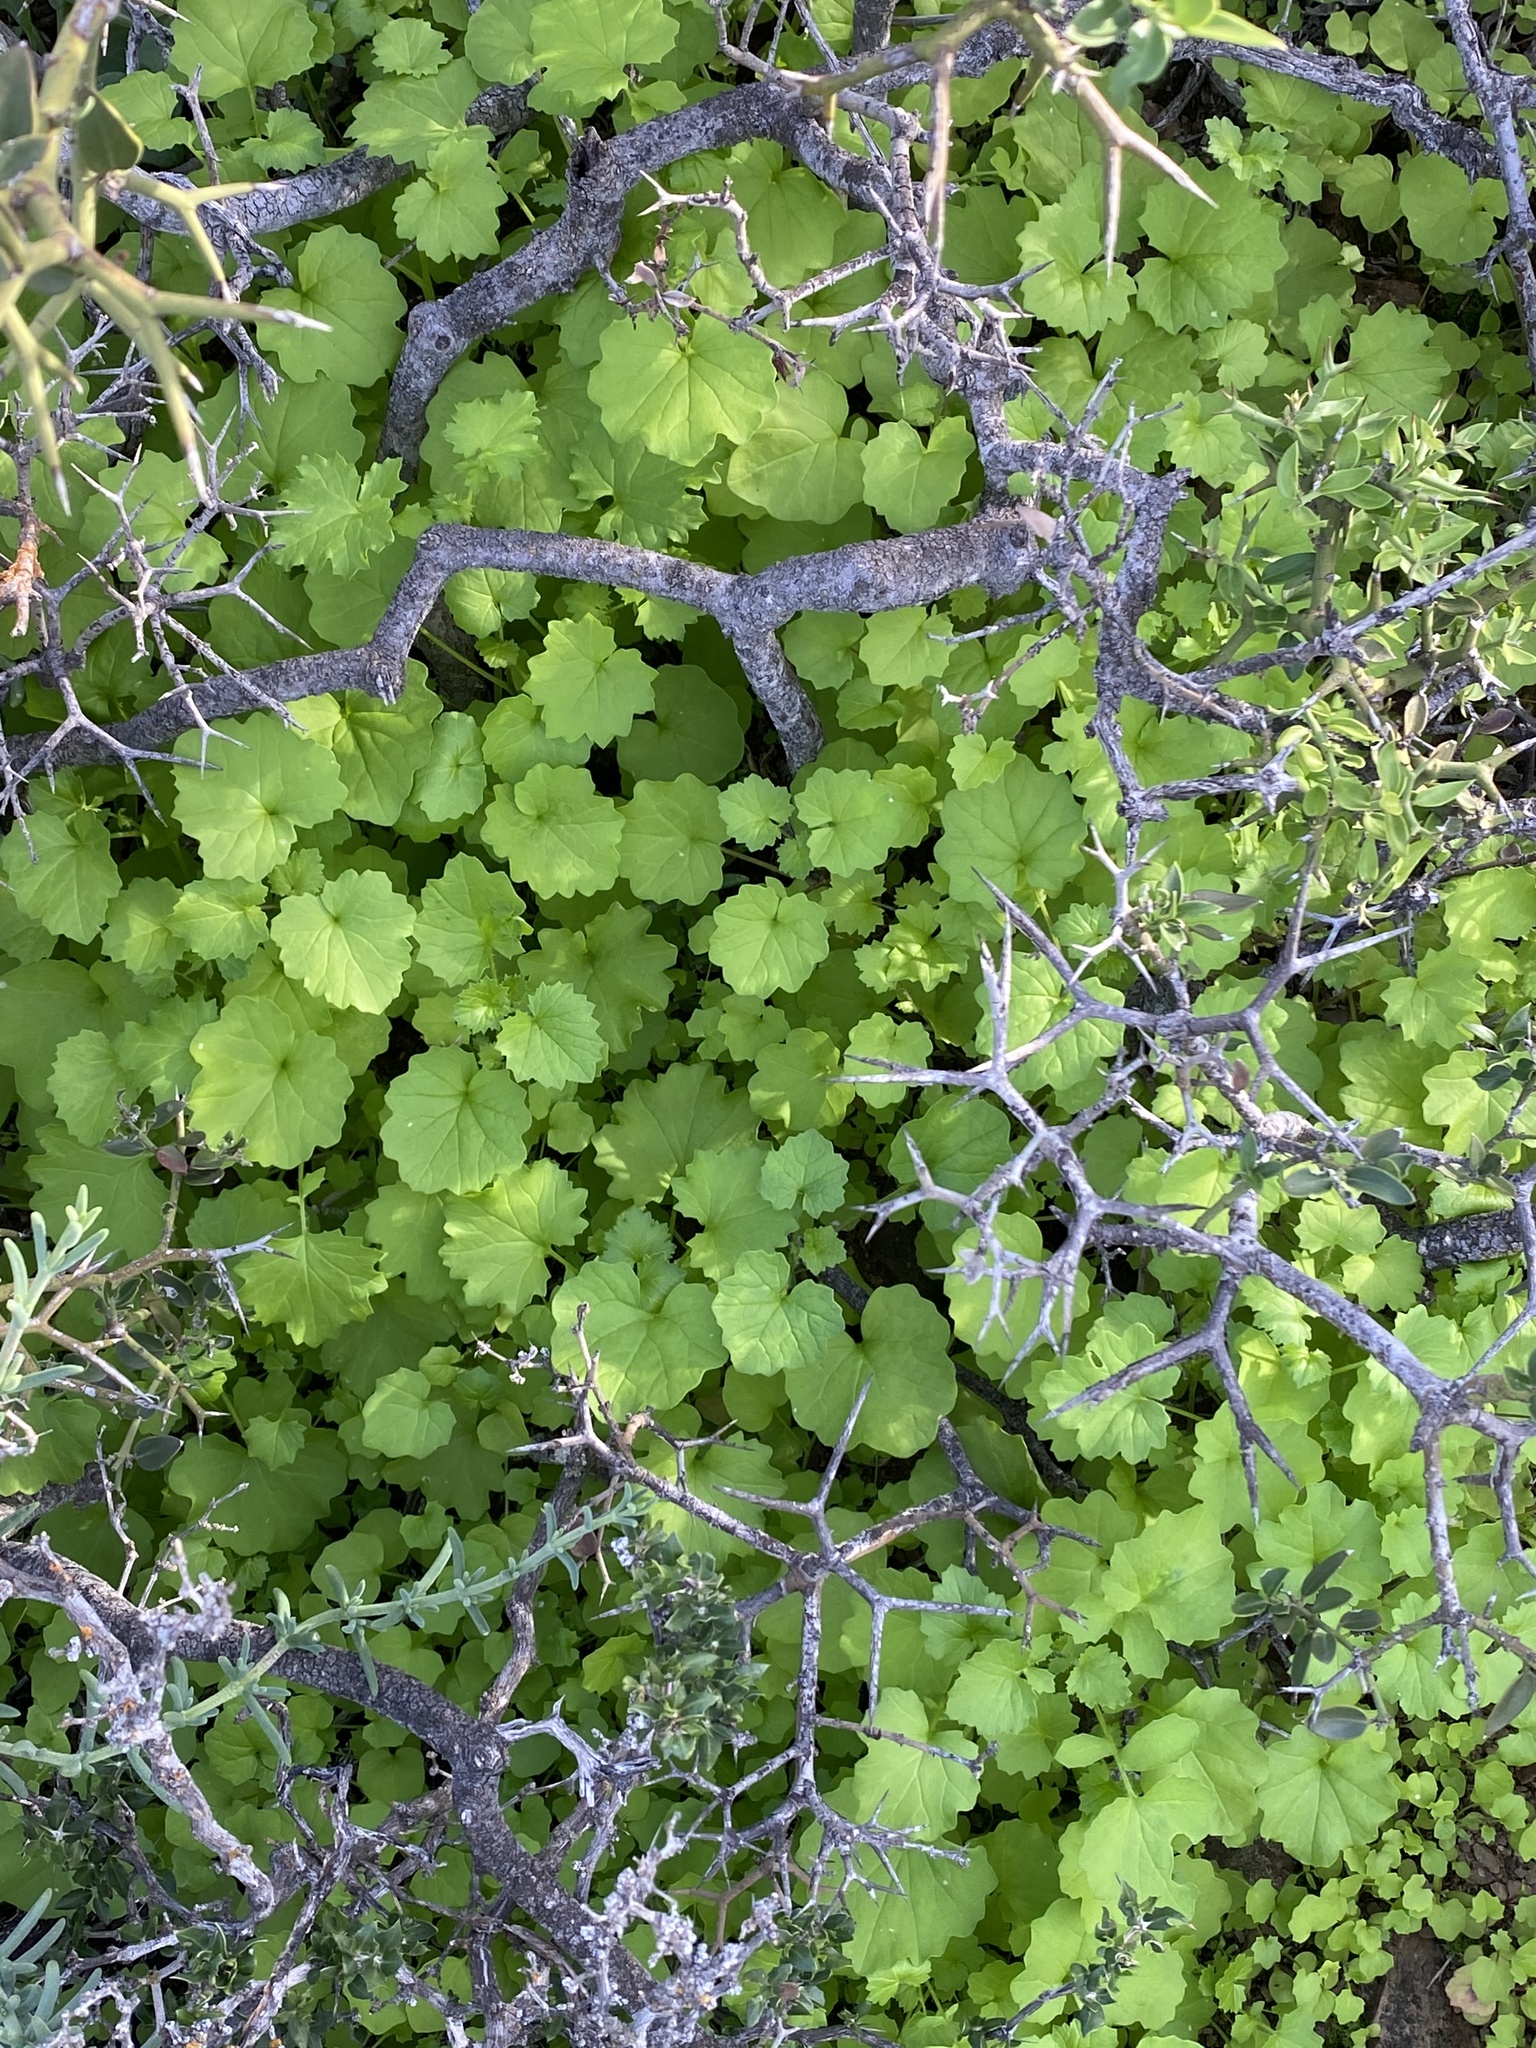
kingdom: Plantae
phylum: Tracheophyta
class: Magnoliopsida
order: Asterales
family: Asteraceae
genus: Cineraria
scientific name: Cineraria lobata
